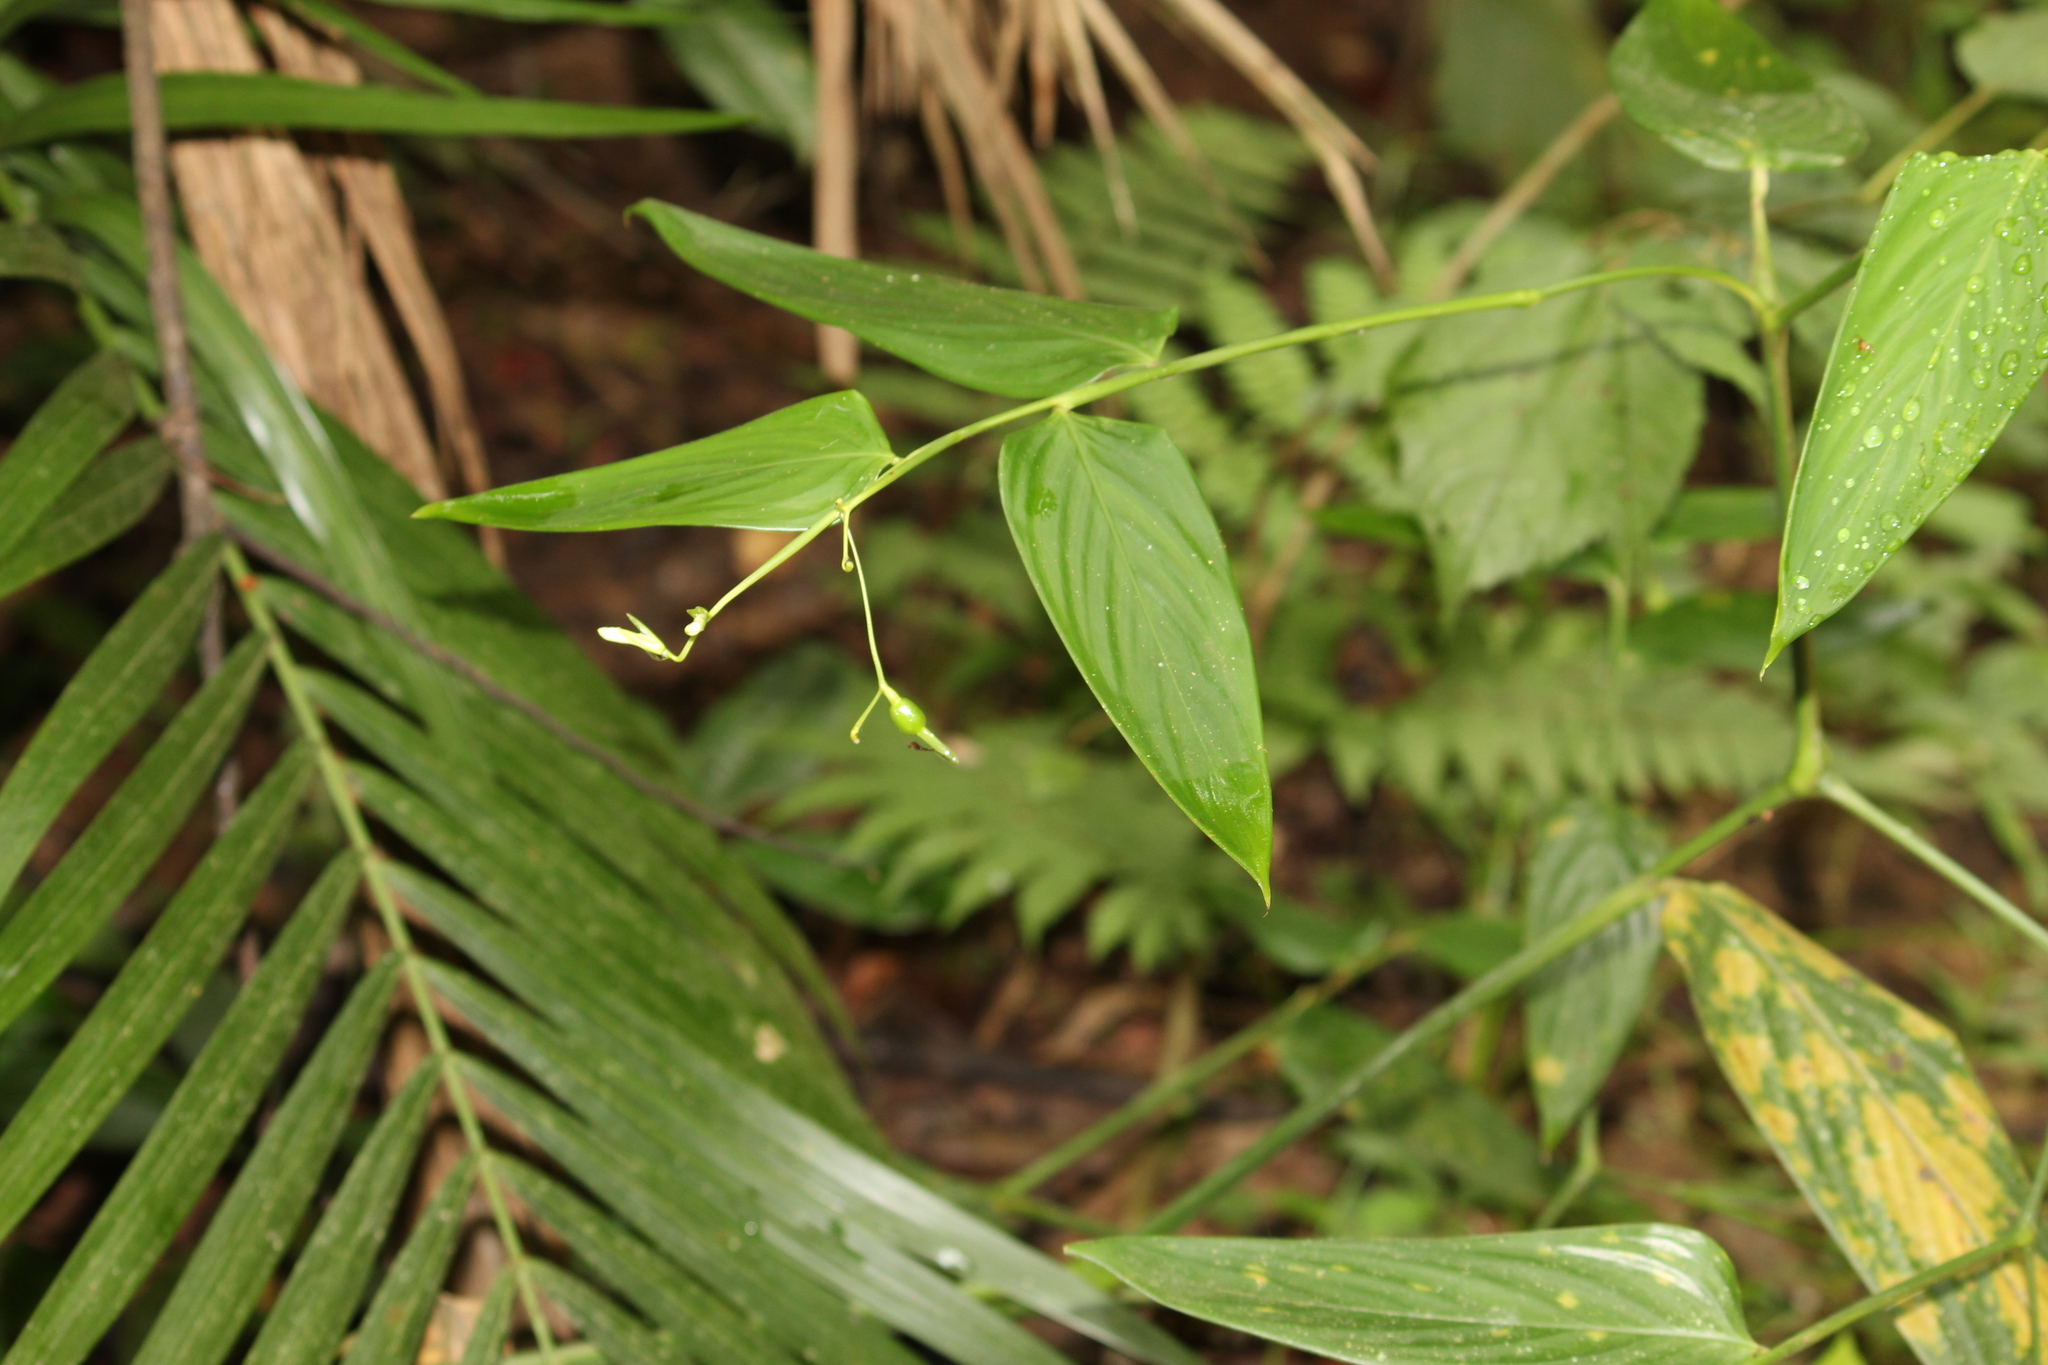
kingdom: Plantae
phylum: Tracheophyta
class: Liliopsida
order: Zingiberales
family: Marantaceae
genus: Maranta
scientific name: Maranta divaricata
